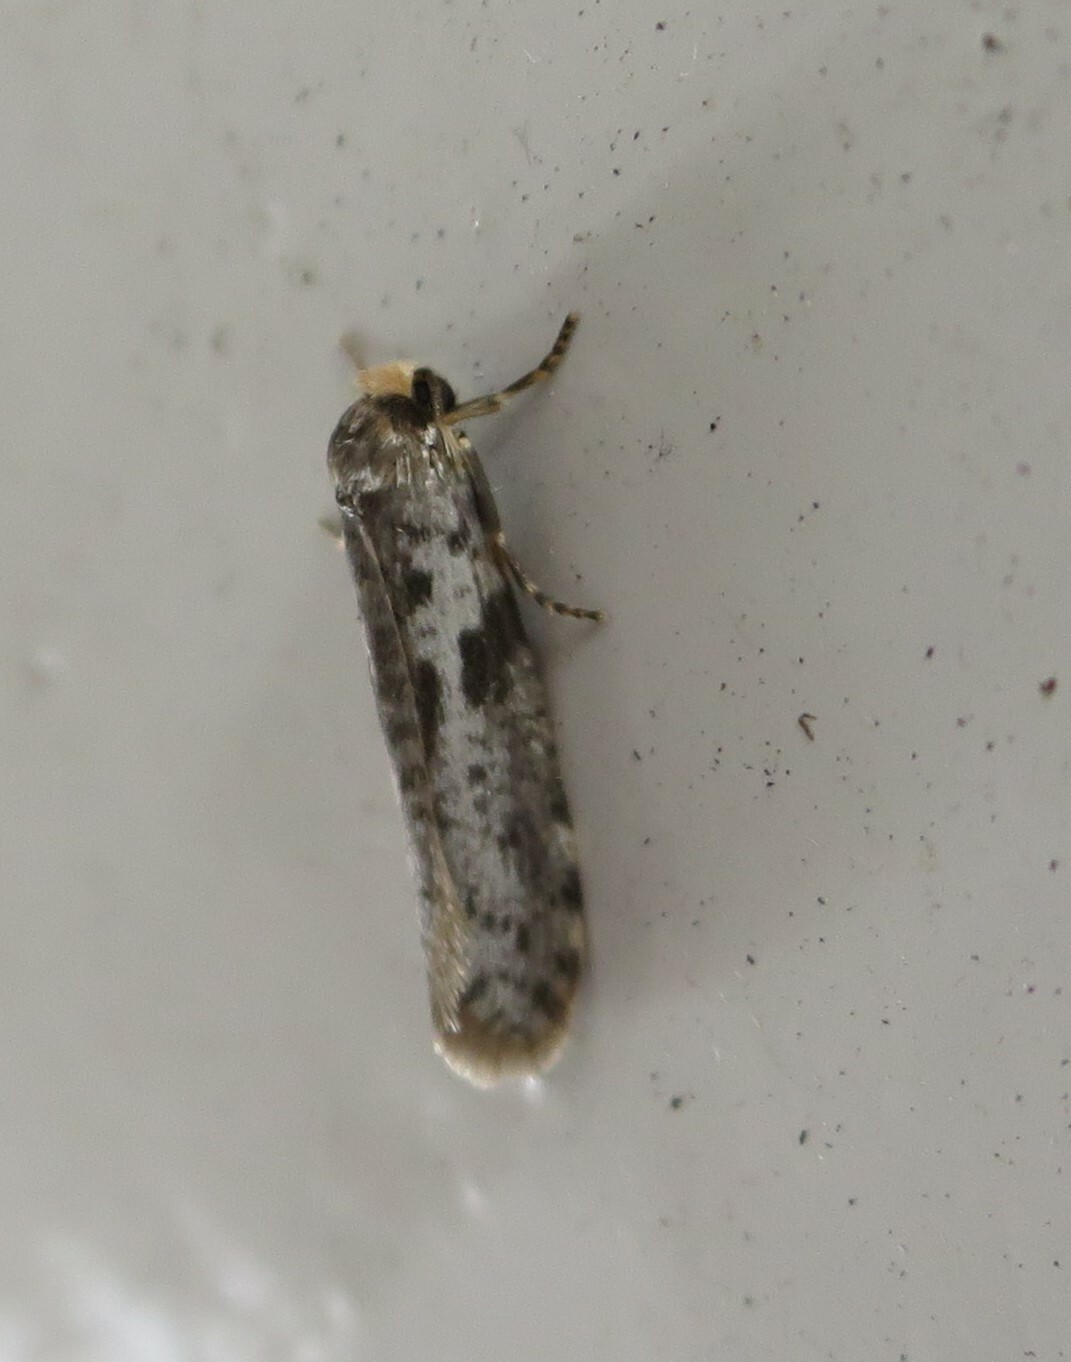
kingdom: Animalia
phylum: Arthropoda
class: Insecta
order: Lepidoptera
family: Psychidae
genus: Lepidoscia
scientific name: Lepidoscia protorna
